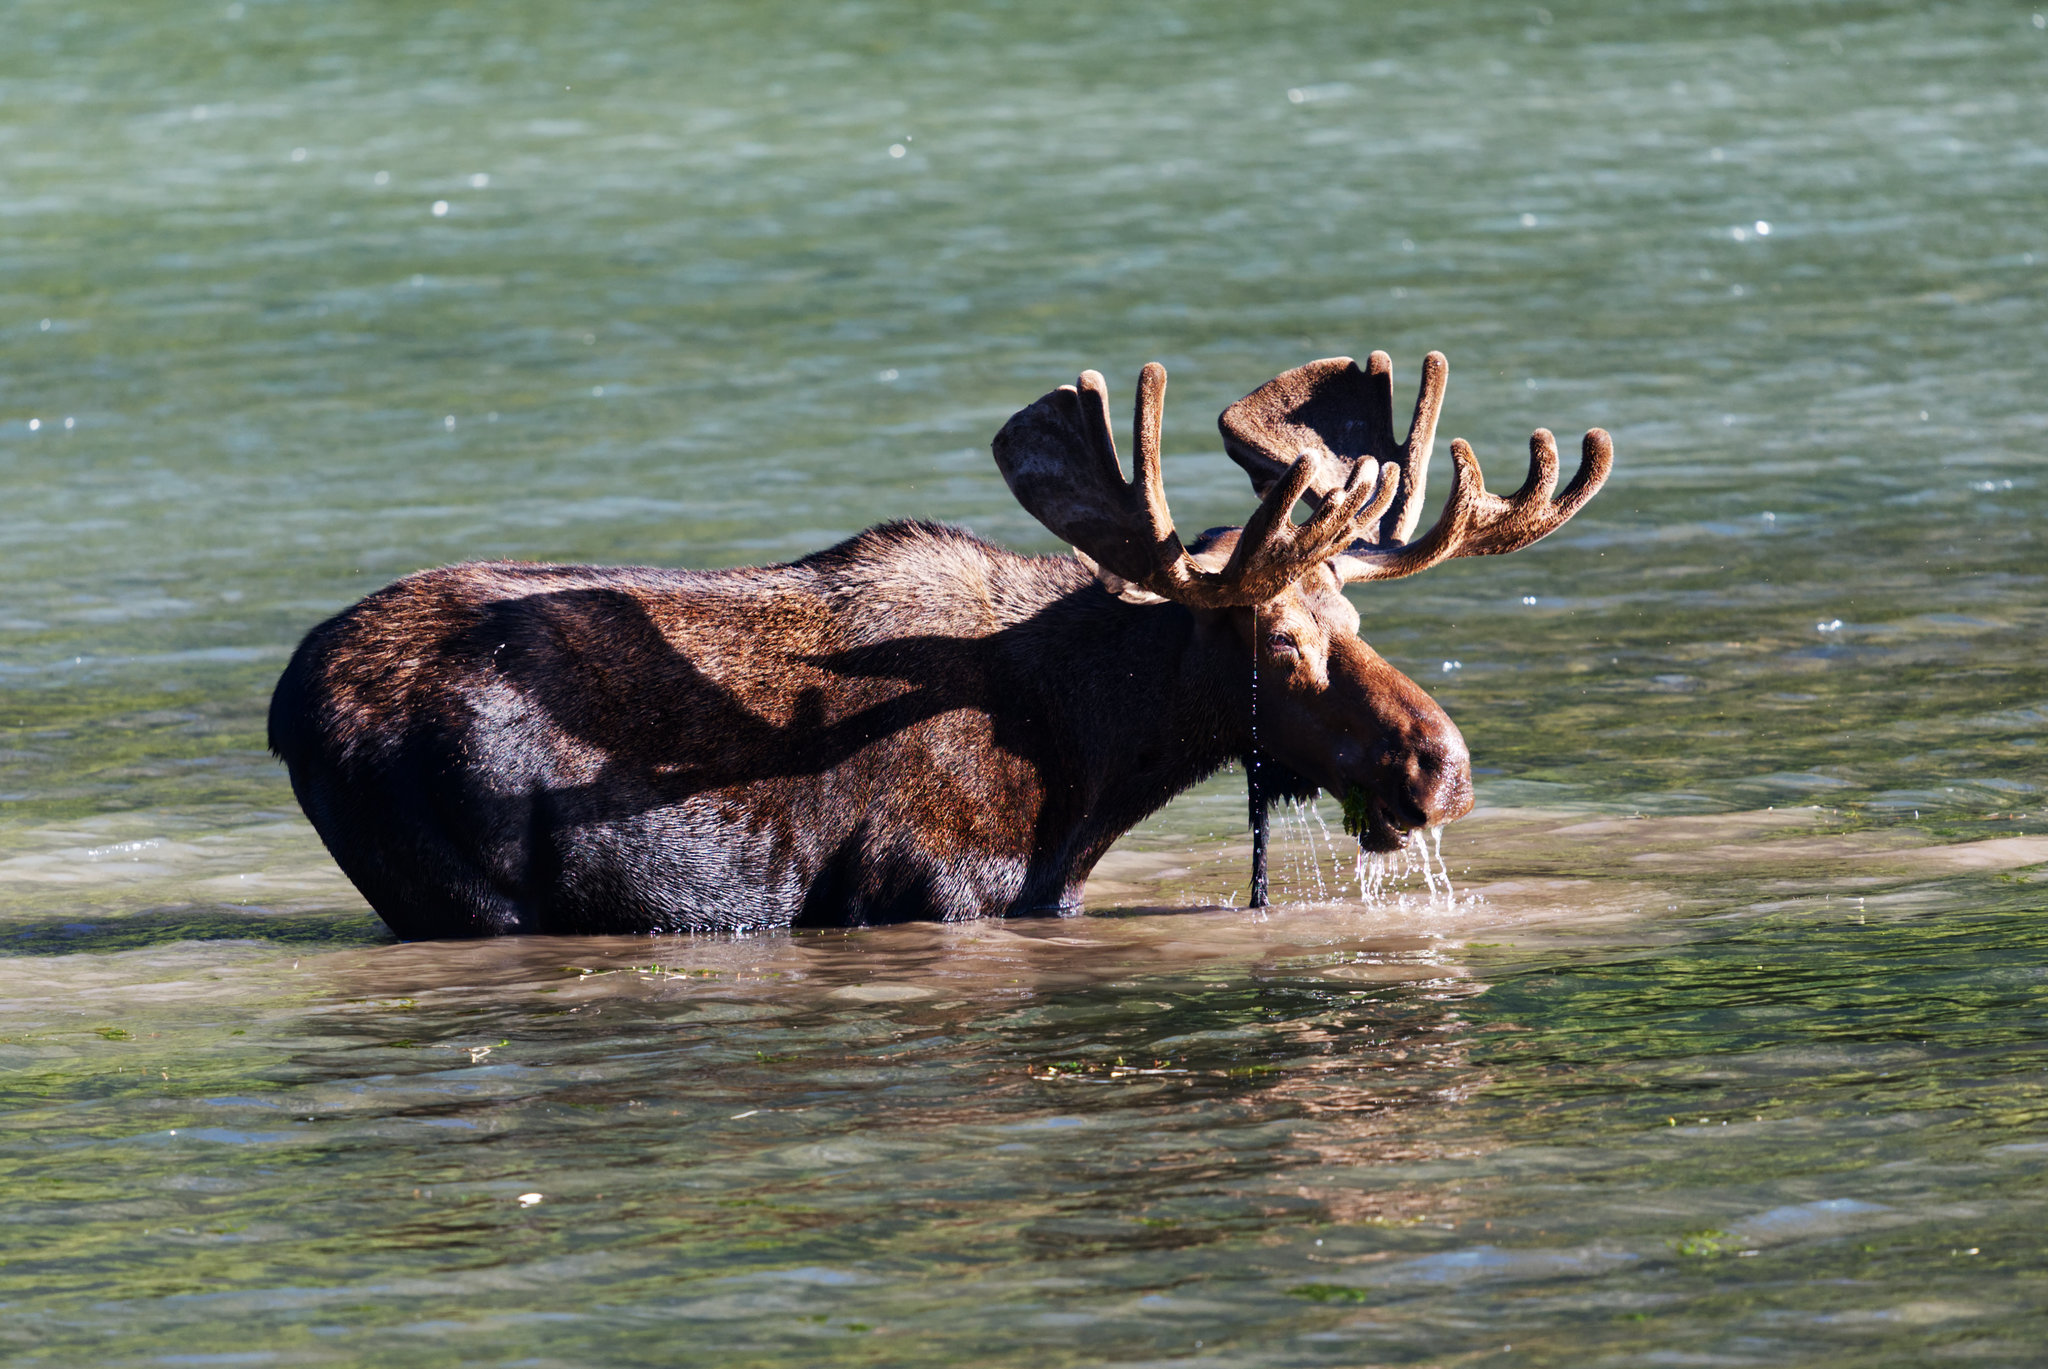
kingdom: Animalia
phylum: Chordata
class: Mammalia
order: Artiodactyla
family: Cervidae
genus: Alces
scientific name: Alces alces
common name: Moose
